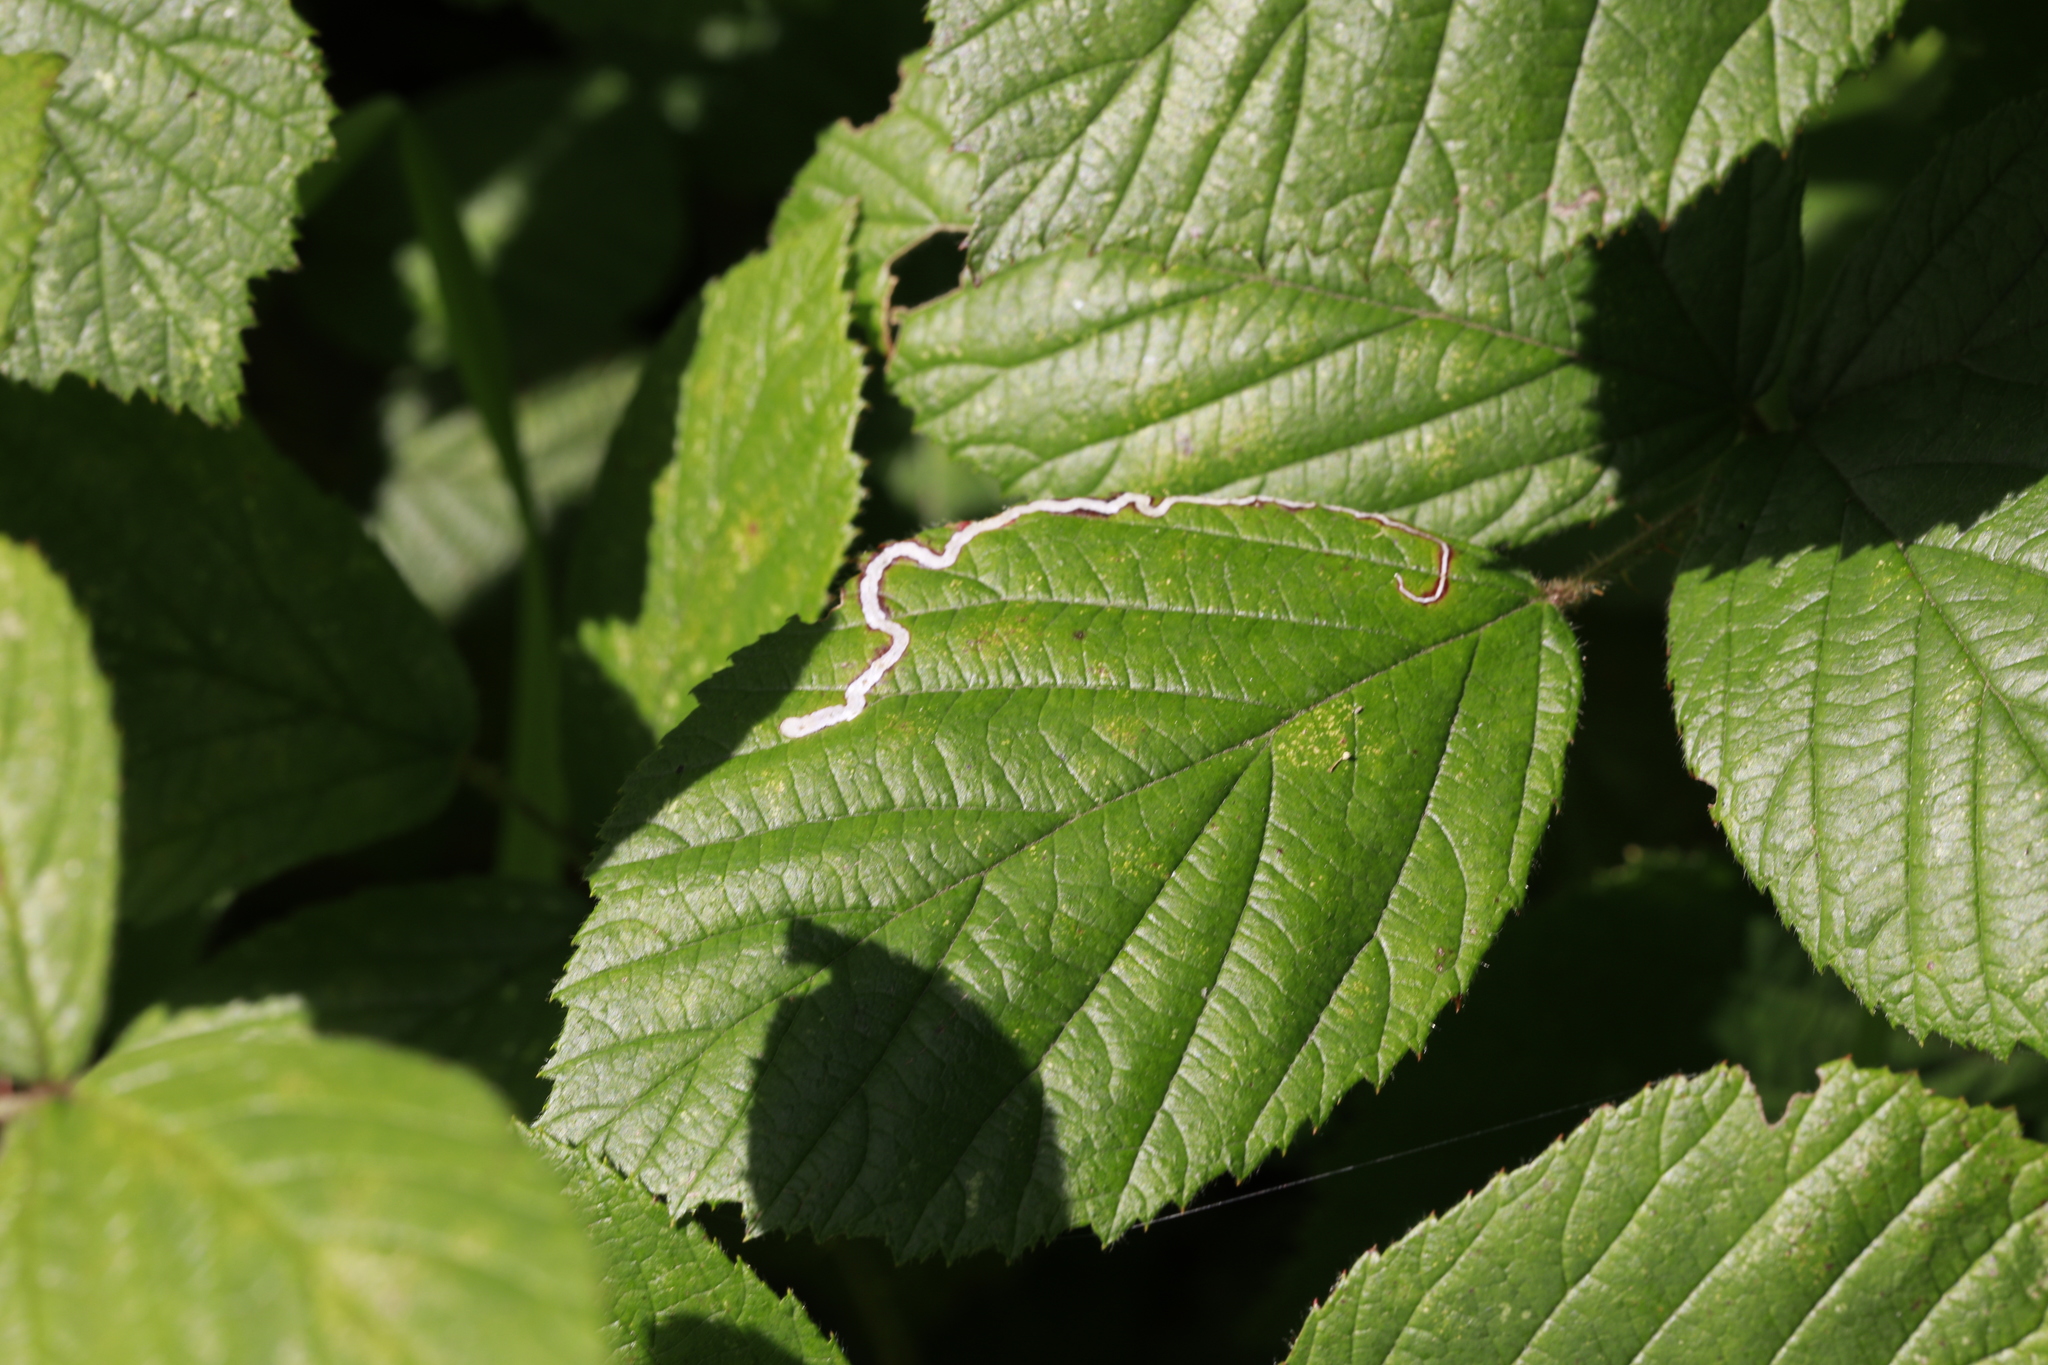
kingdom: Animalia
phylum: Arthropoda
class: Insecta
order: Lepidoptera
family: Nepticulidae
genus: Stigmella
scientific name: Stigmella aurella
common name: Golden pigmy
